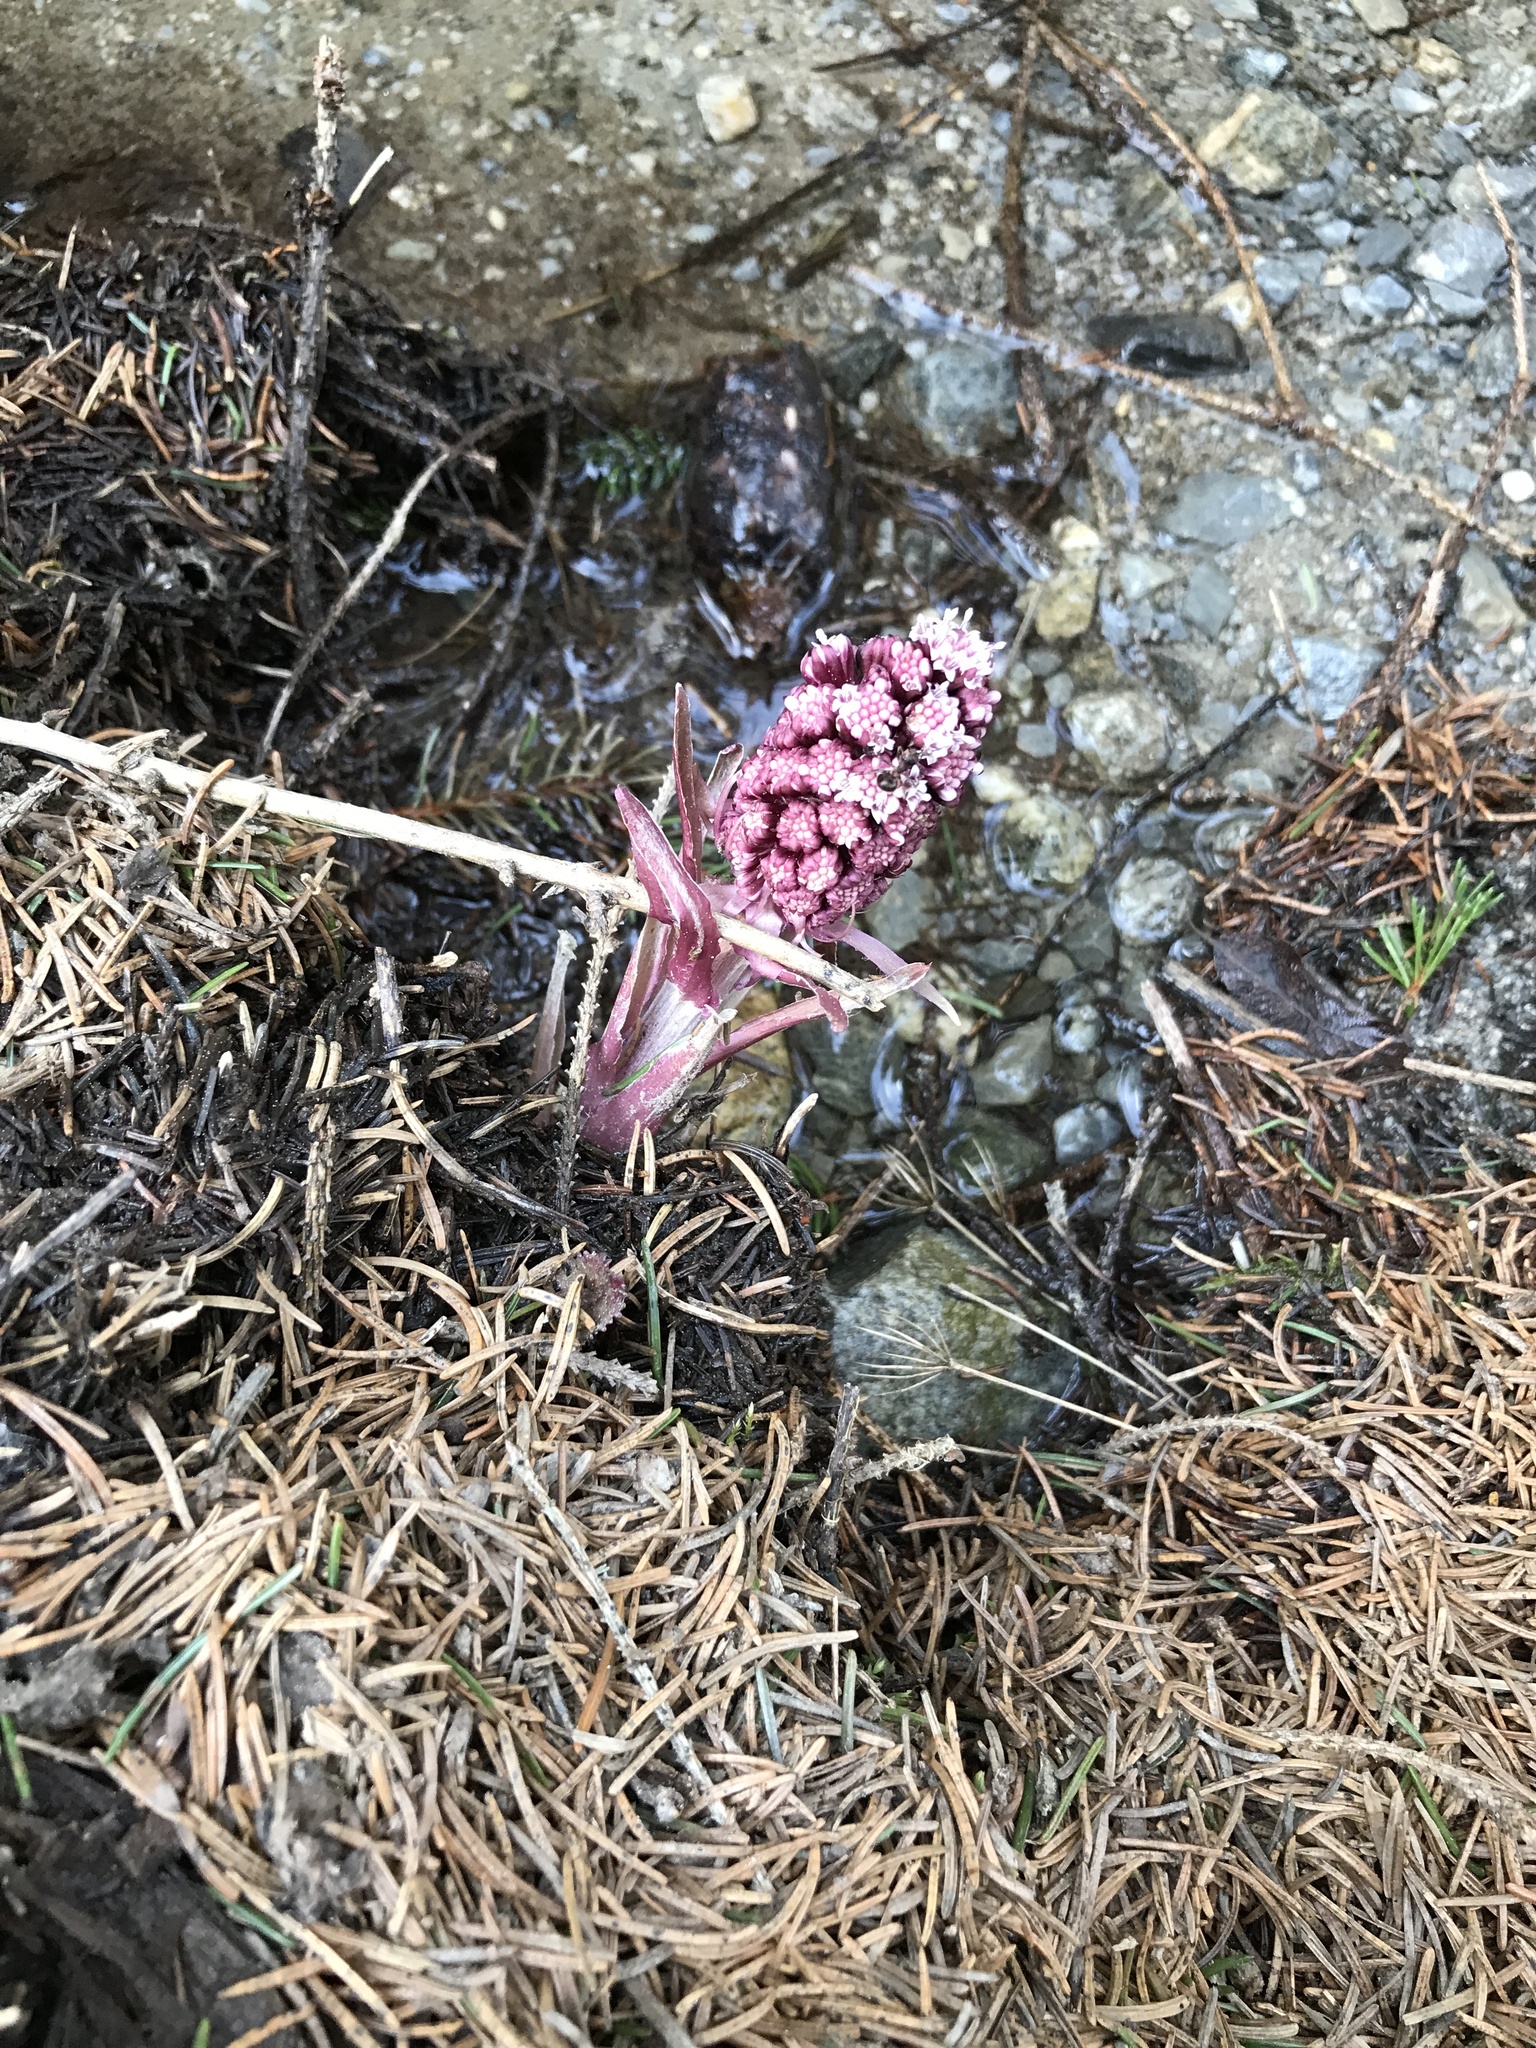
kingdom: Plantae
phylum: Tracheophyta
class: Magnoliopsida
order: Asterales
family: Asteraceae
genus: Petasites
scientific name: Petasites hybridus
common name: Butterbur
